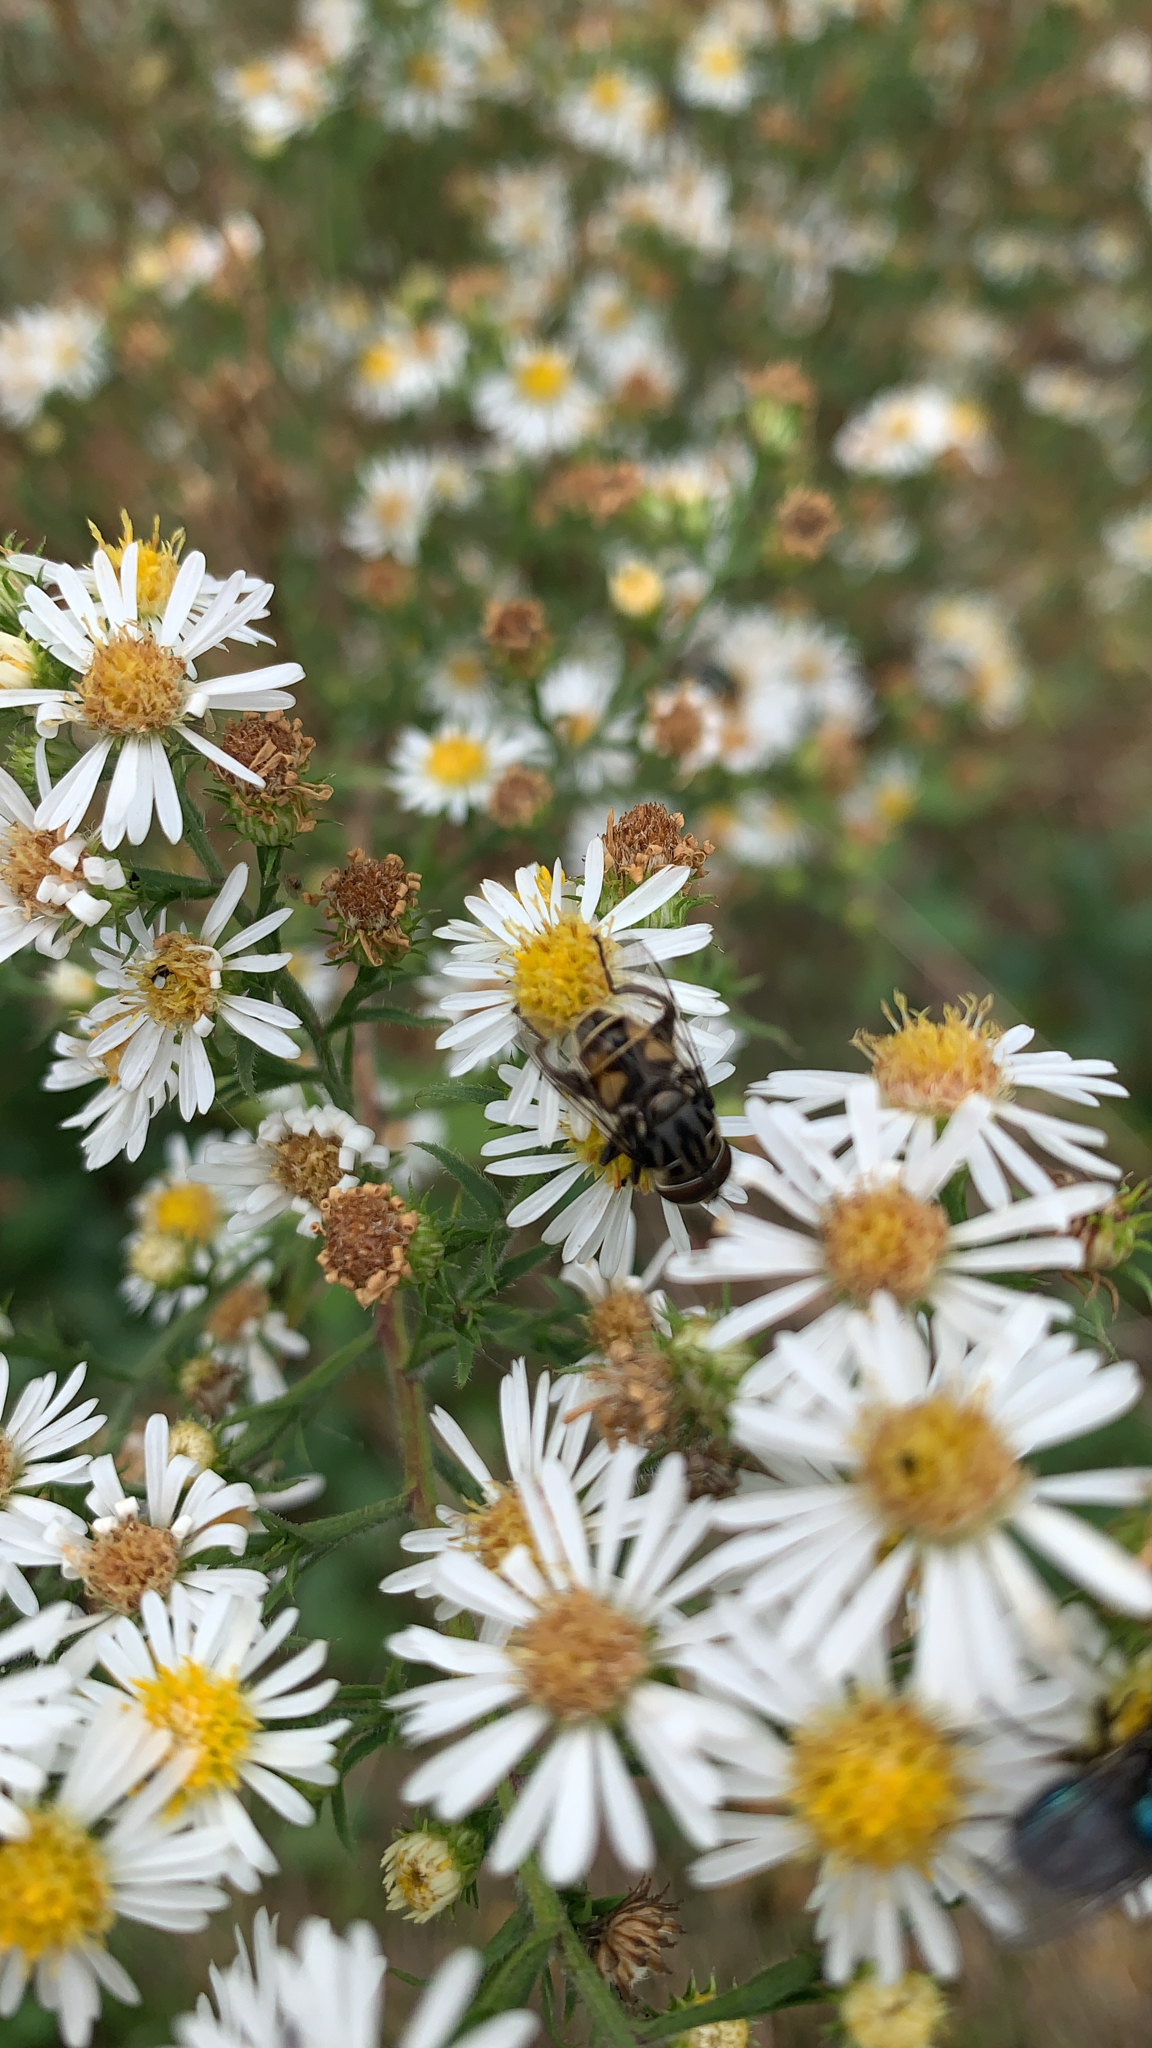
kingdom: Animalia
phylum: Arthropoda
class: Insecta
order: Diptera
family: Syrphidae
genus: Palpada
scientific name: Palpada furcata
